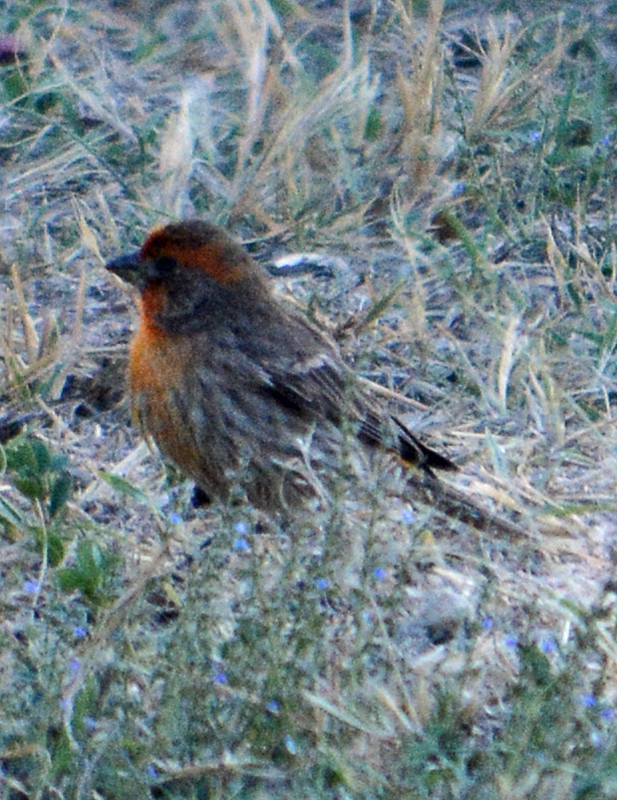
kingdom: Animalia
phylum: Chordata
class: Aves
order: Passeriformes
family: Fringillidae
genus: Haemorhous
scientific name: Haemorhous mexicanus
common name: House finch
